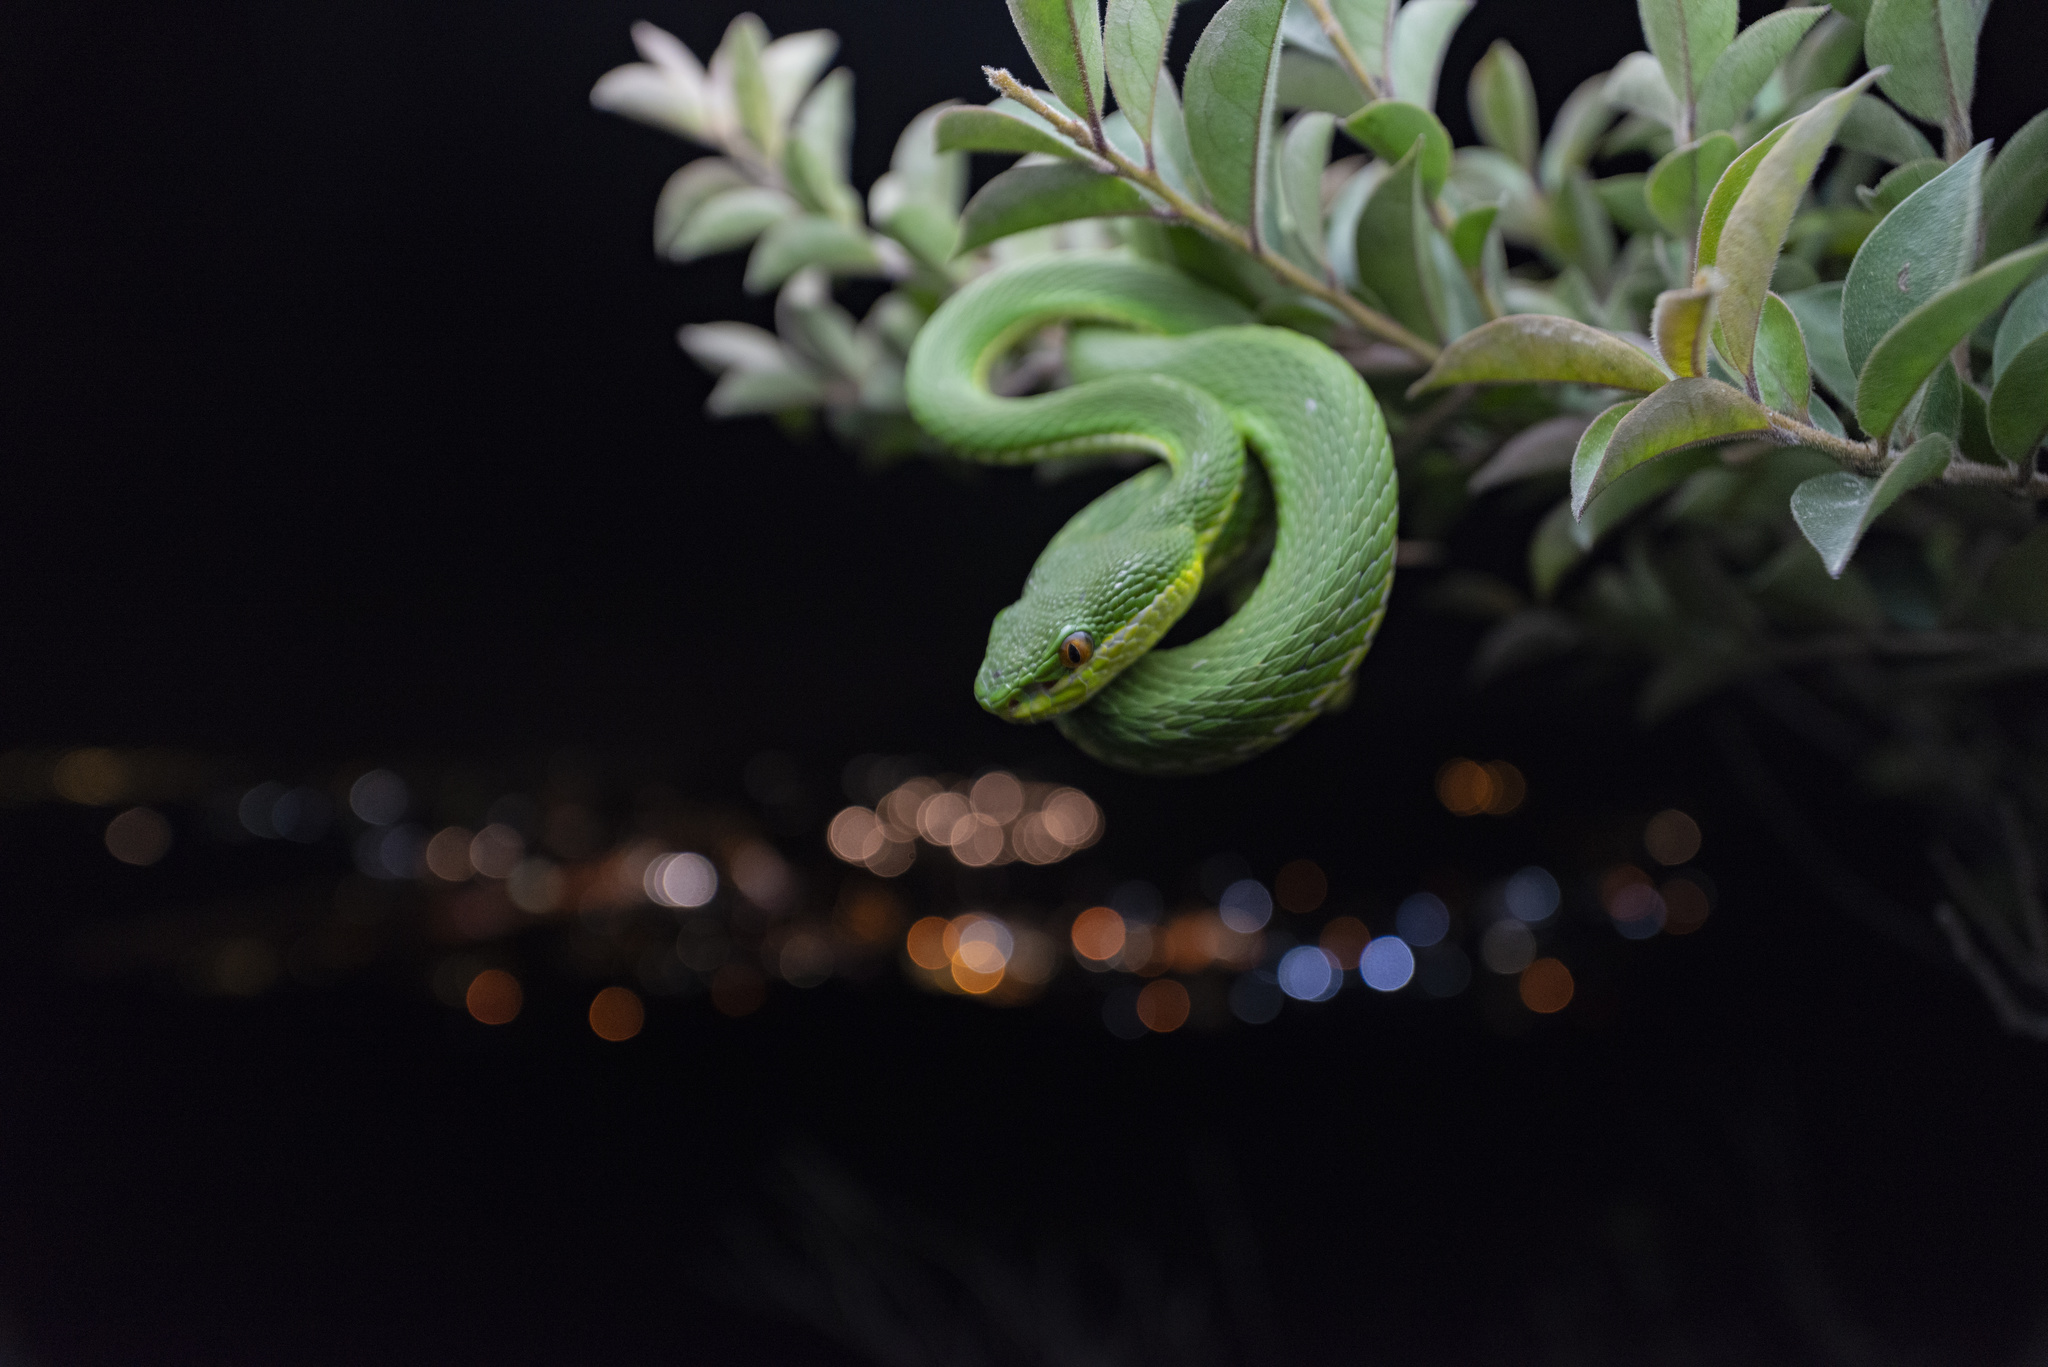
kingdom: Animalia
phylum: Chordata
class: Squamata
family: Viperidae
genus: Trimeresurus
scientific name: Trimeresurus albolabris
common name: White-lipped pitviper
